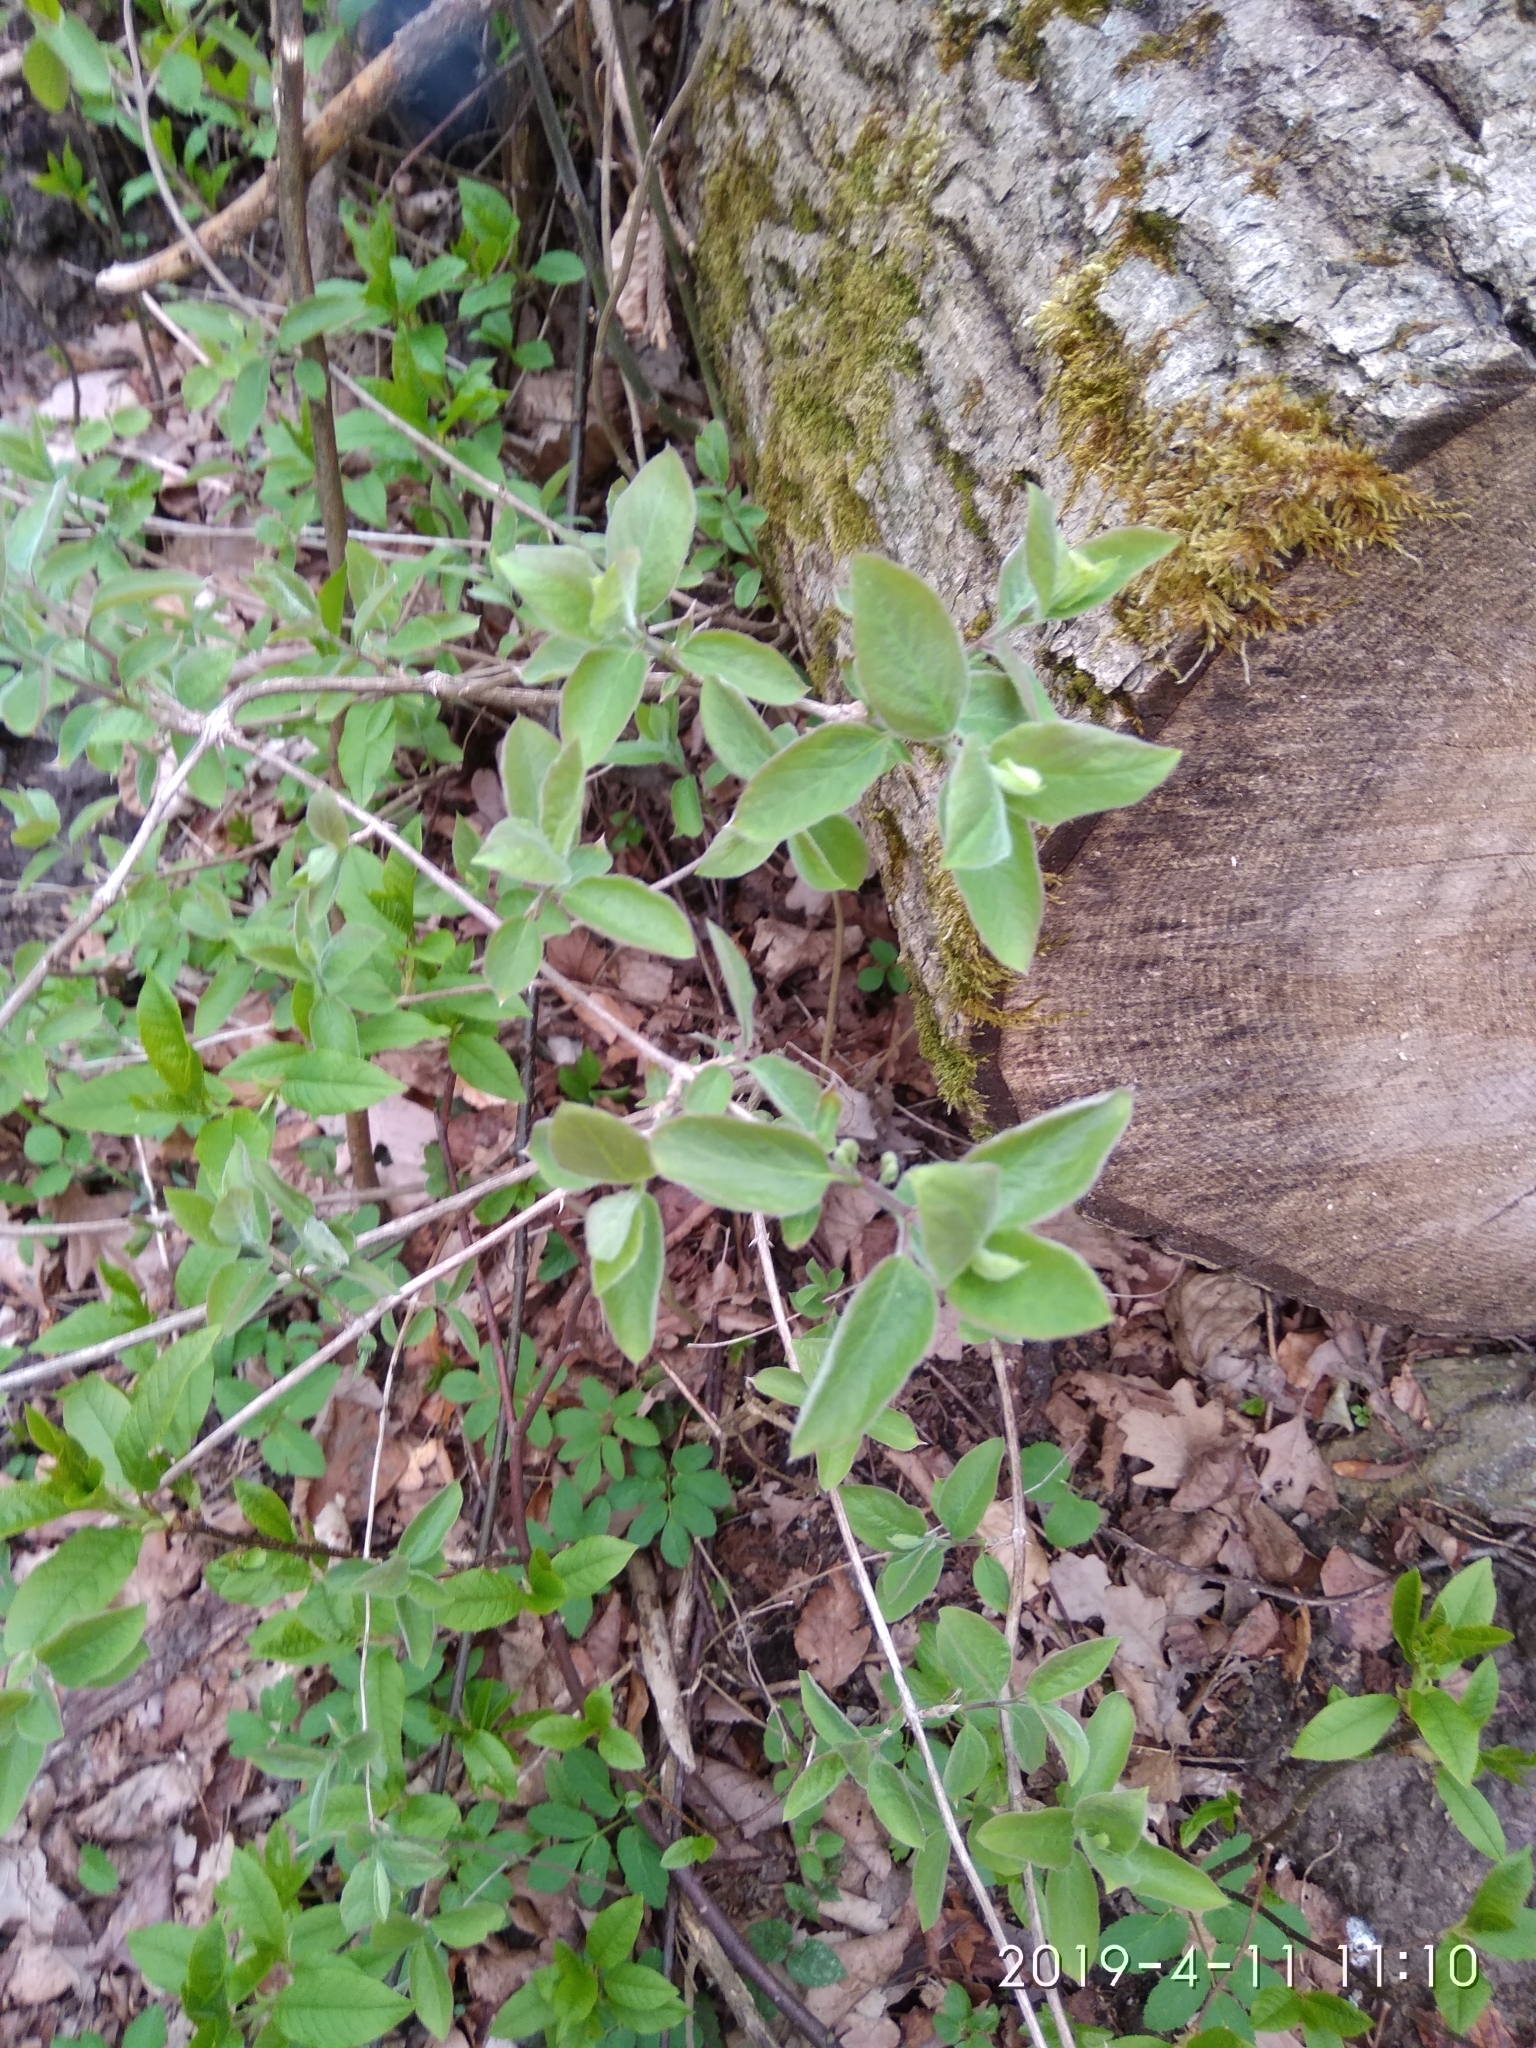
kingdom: Plantae
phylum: Tracheophyta
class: Magnoliopsida
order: Dipsacales
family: Caprifoliaceae
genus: Lonicera
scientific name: Lonicera xylosteum
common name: Fly honeysuckle
